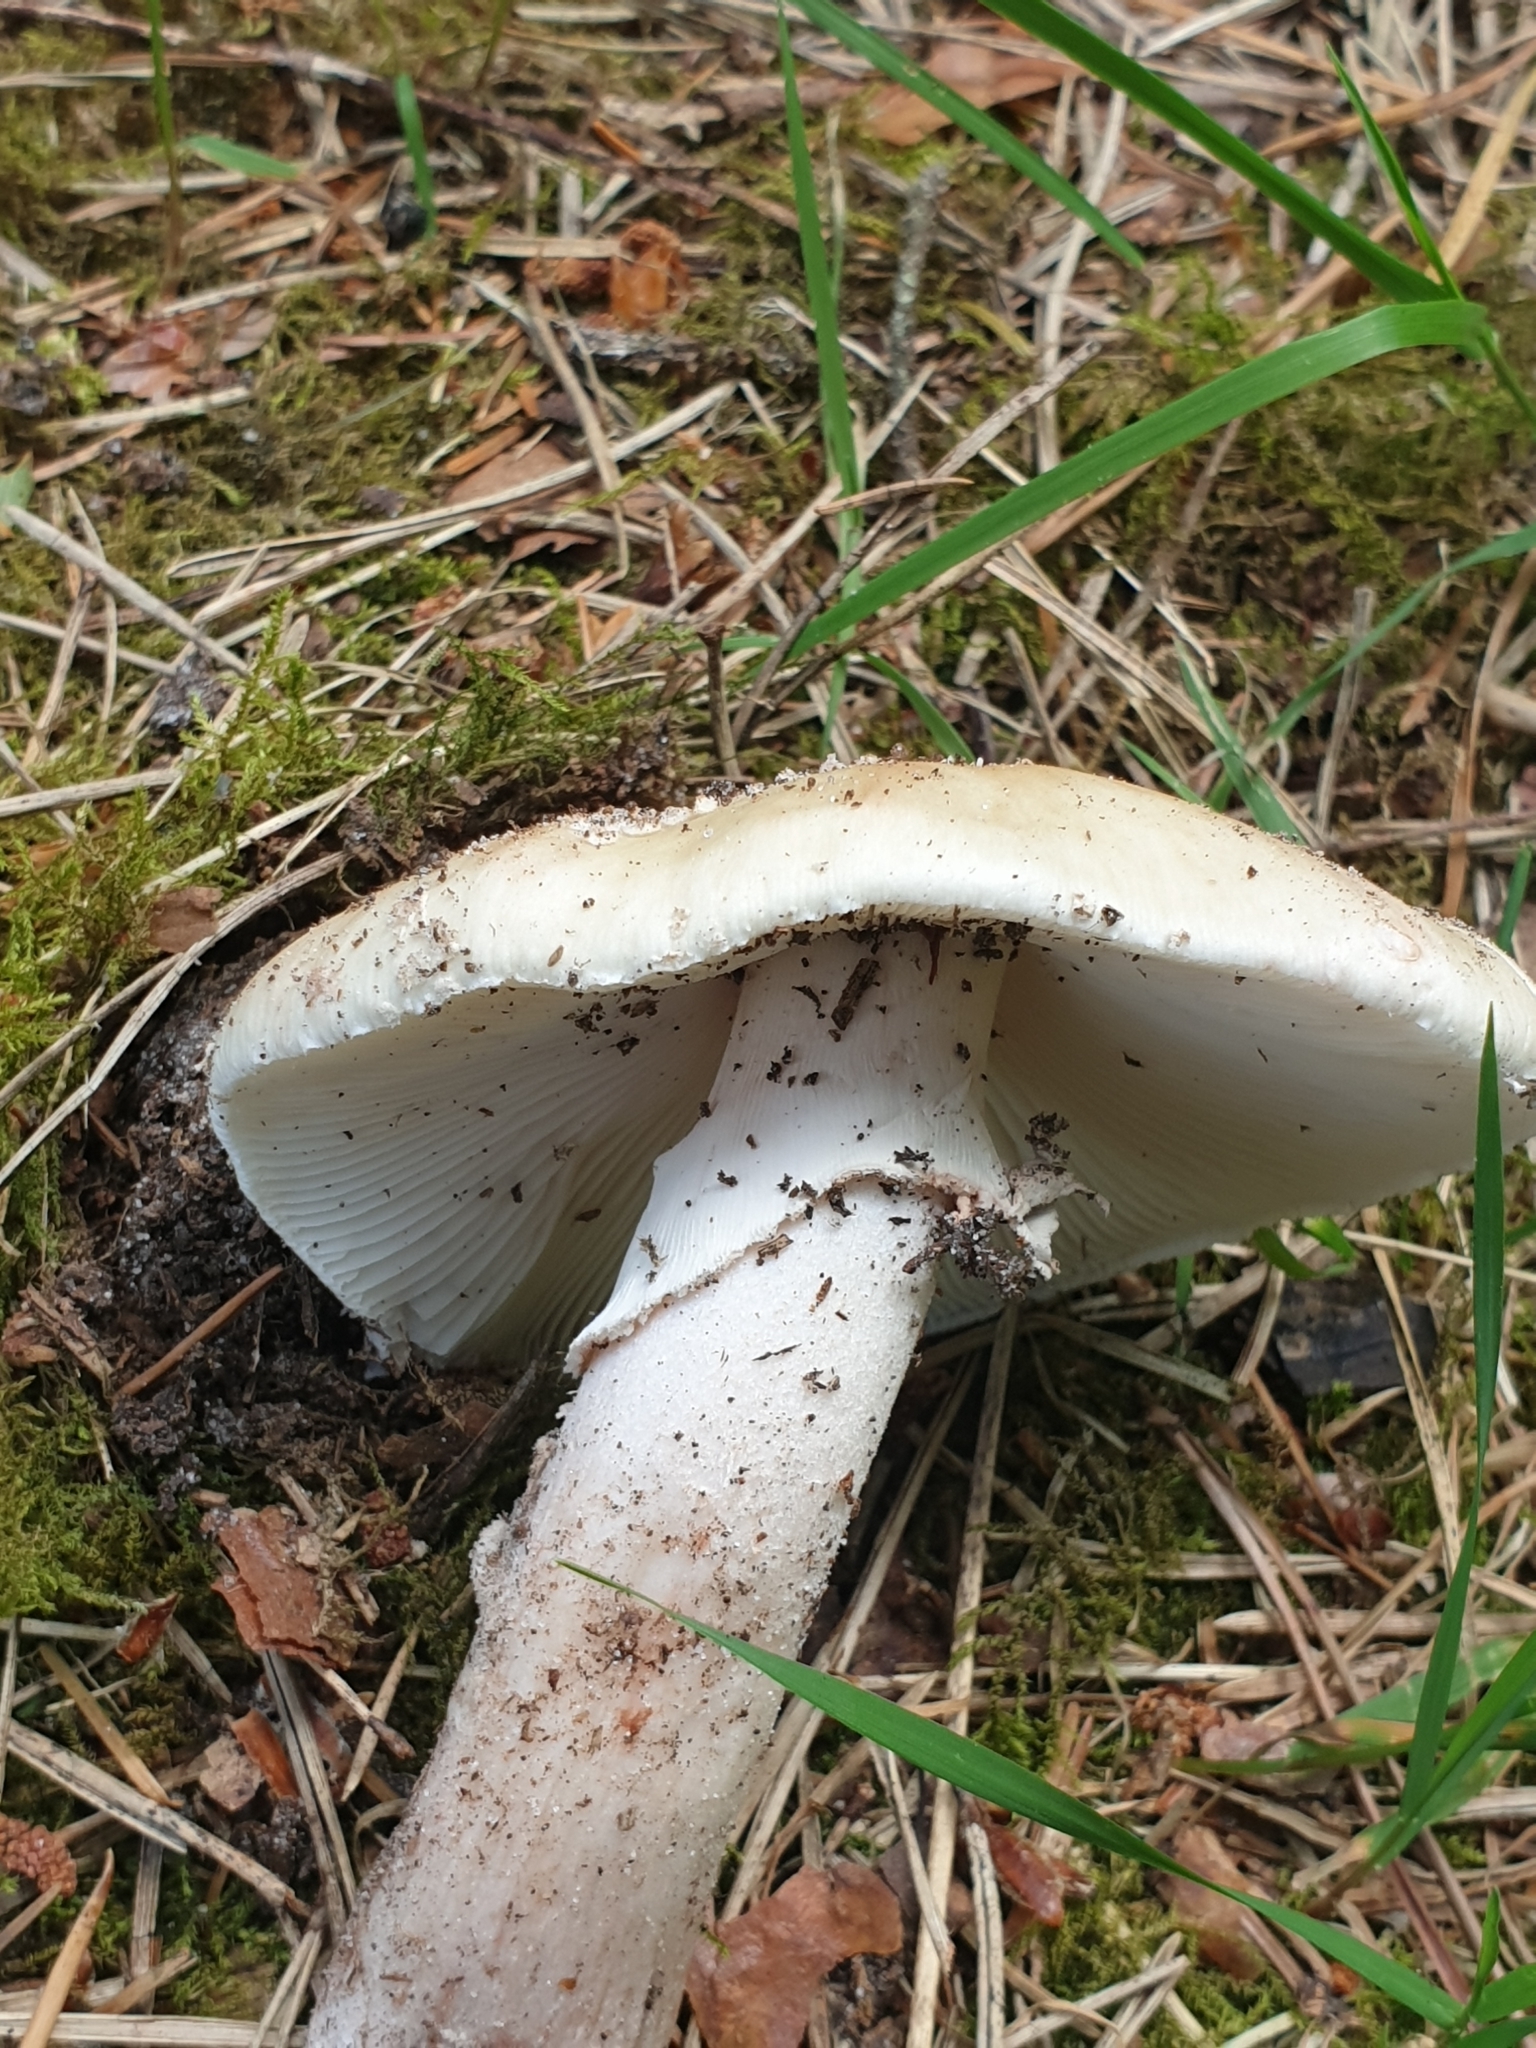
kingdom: Fungi
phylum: Basidiomycota
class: Agaricomycetes
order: Agaricales
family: Amanitaceae
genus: Amanita
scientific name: Amanita rubescens
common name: Blusher
